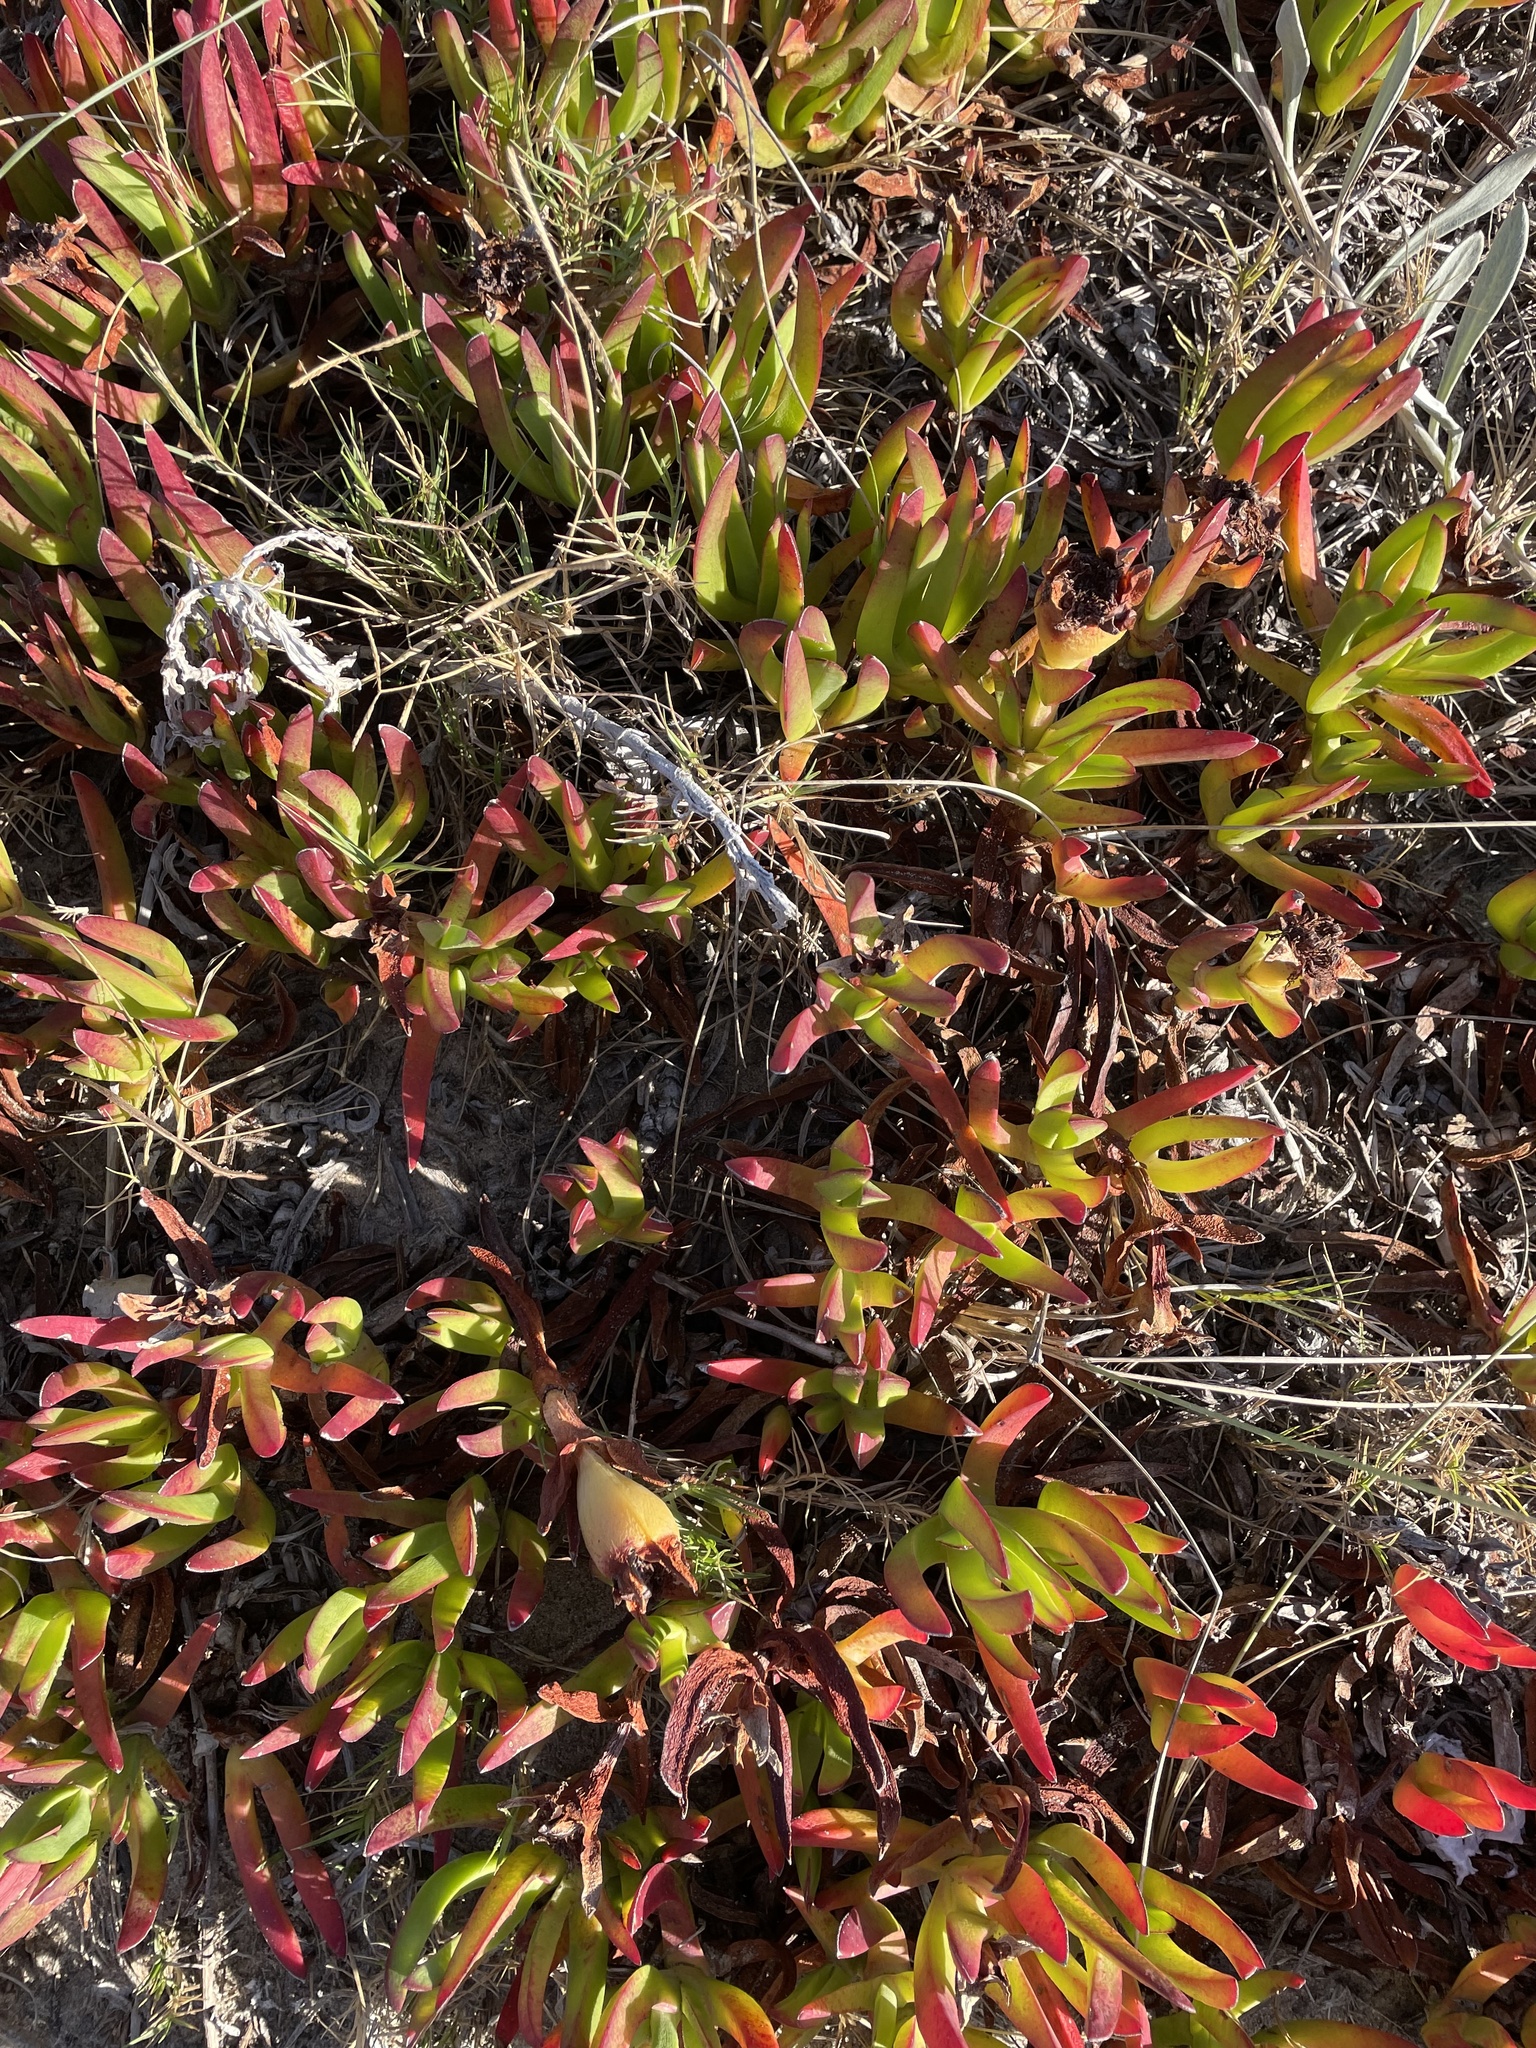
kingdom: Plantae
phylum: Tracheophyta
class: Magnoliopsida
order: Caryophyllales
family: Aizoaceae
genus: Carpobrotus
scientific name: Carpobrotus edulis
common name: Hottentot-fig
